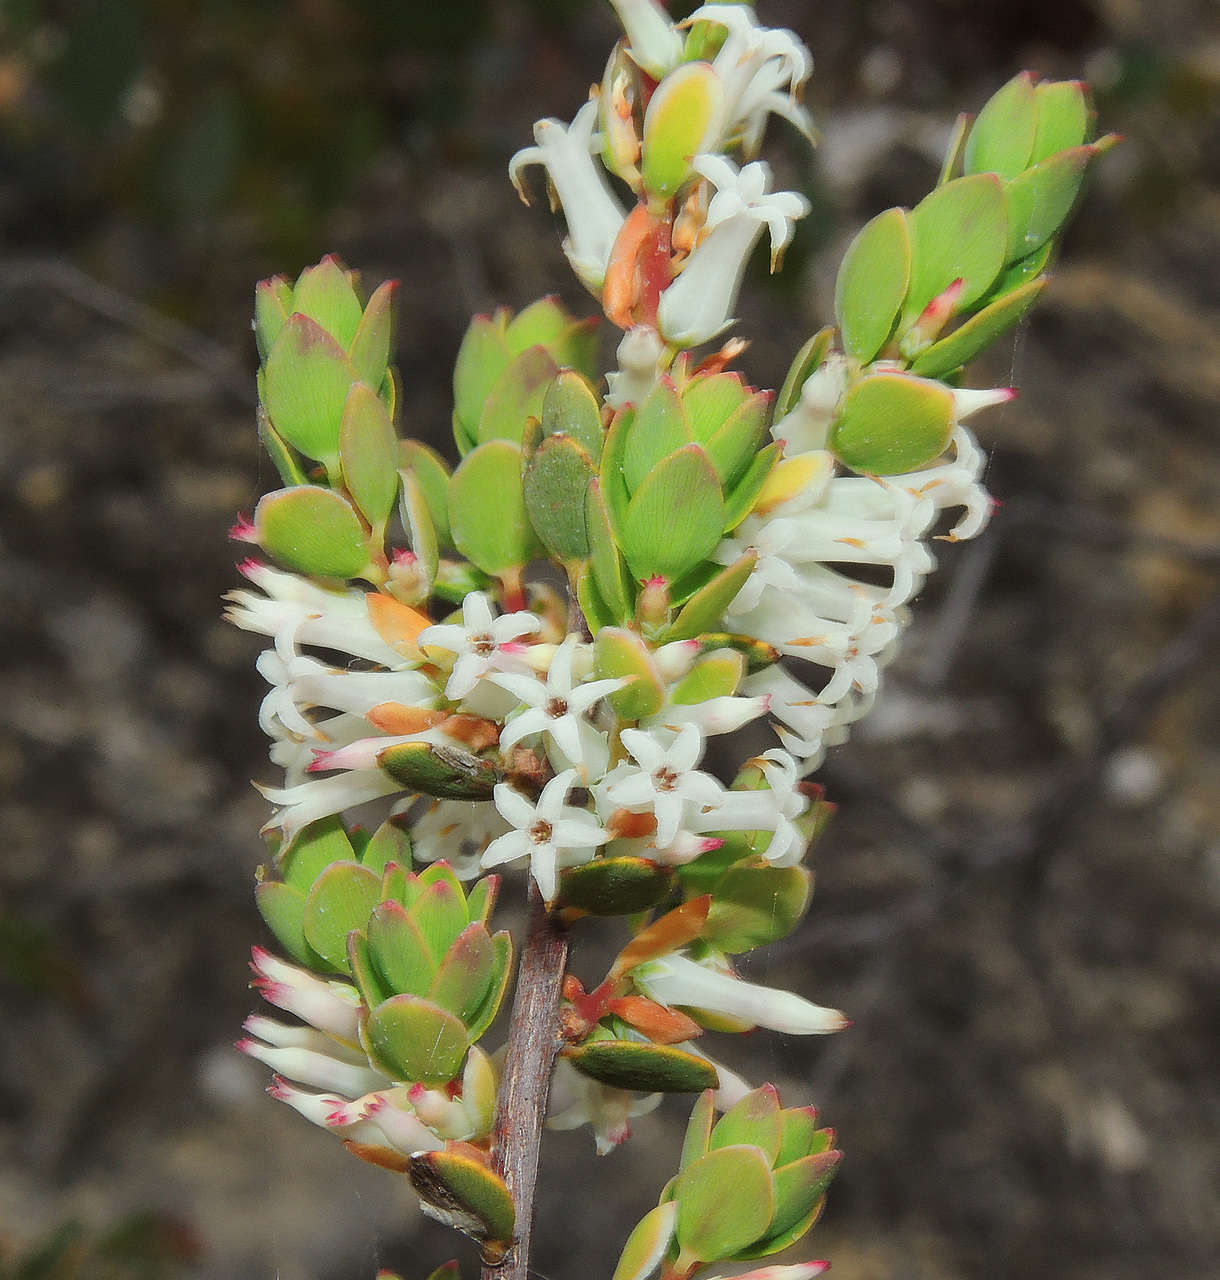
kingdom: Plantae
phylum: Tracheophyta
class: Magnoliopsida
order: Ericales
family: Ericaceae
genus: Brachyloma
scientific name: Brachyloma daphnoides
